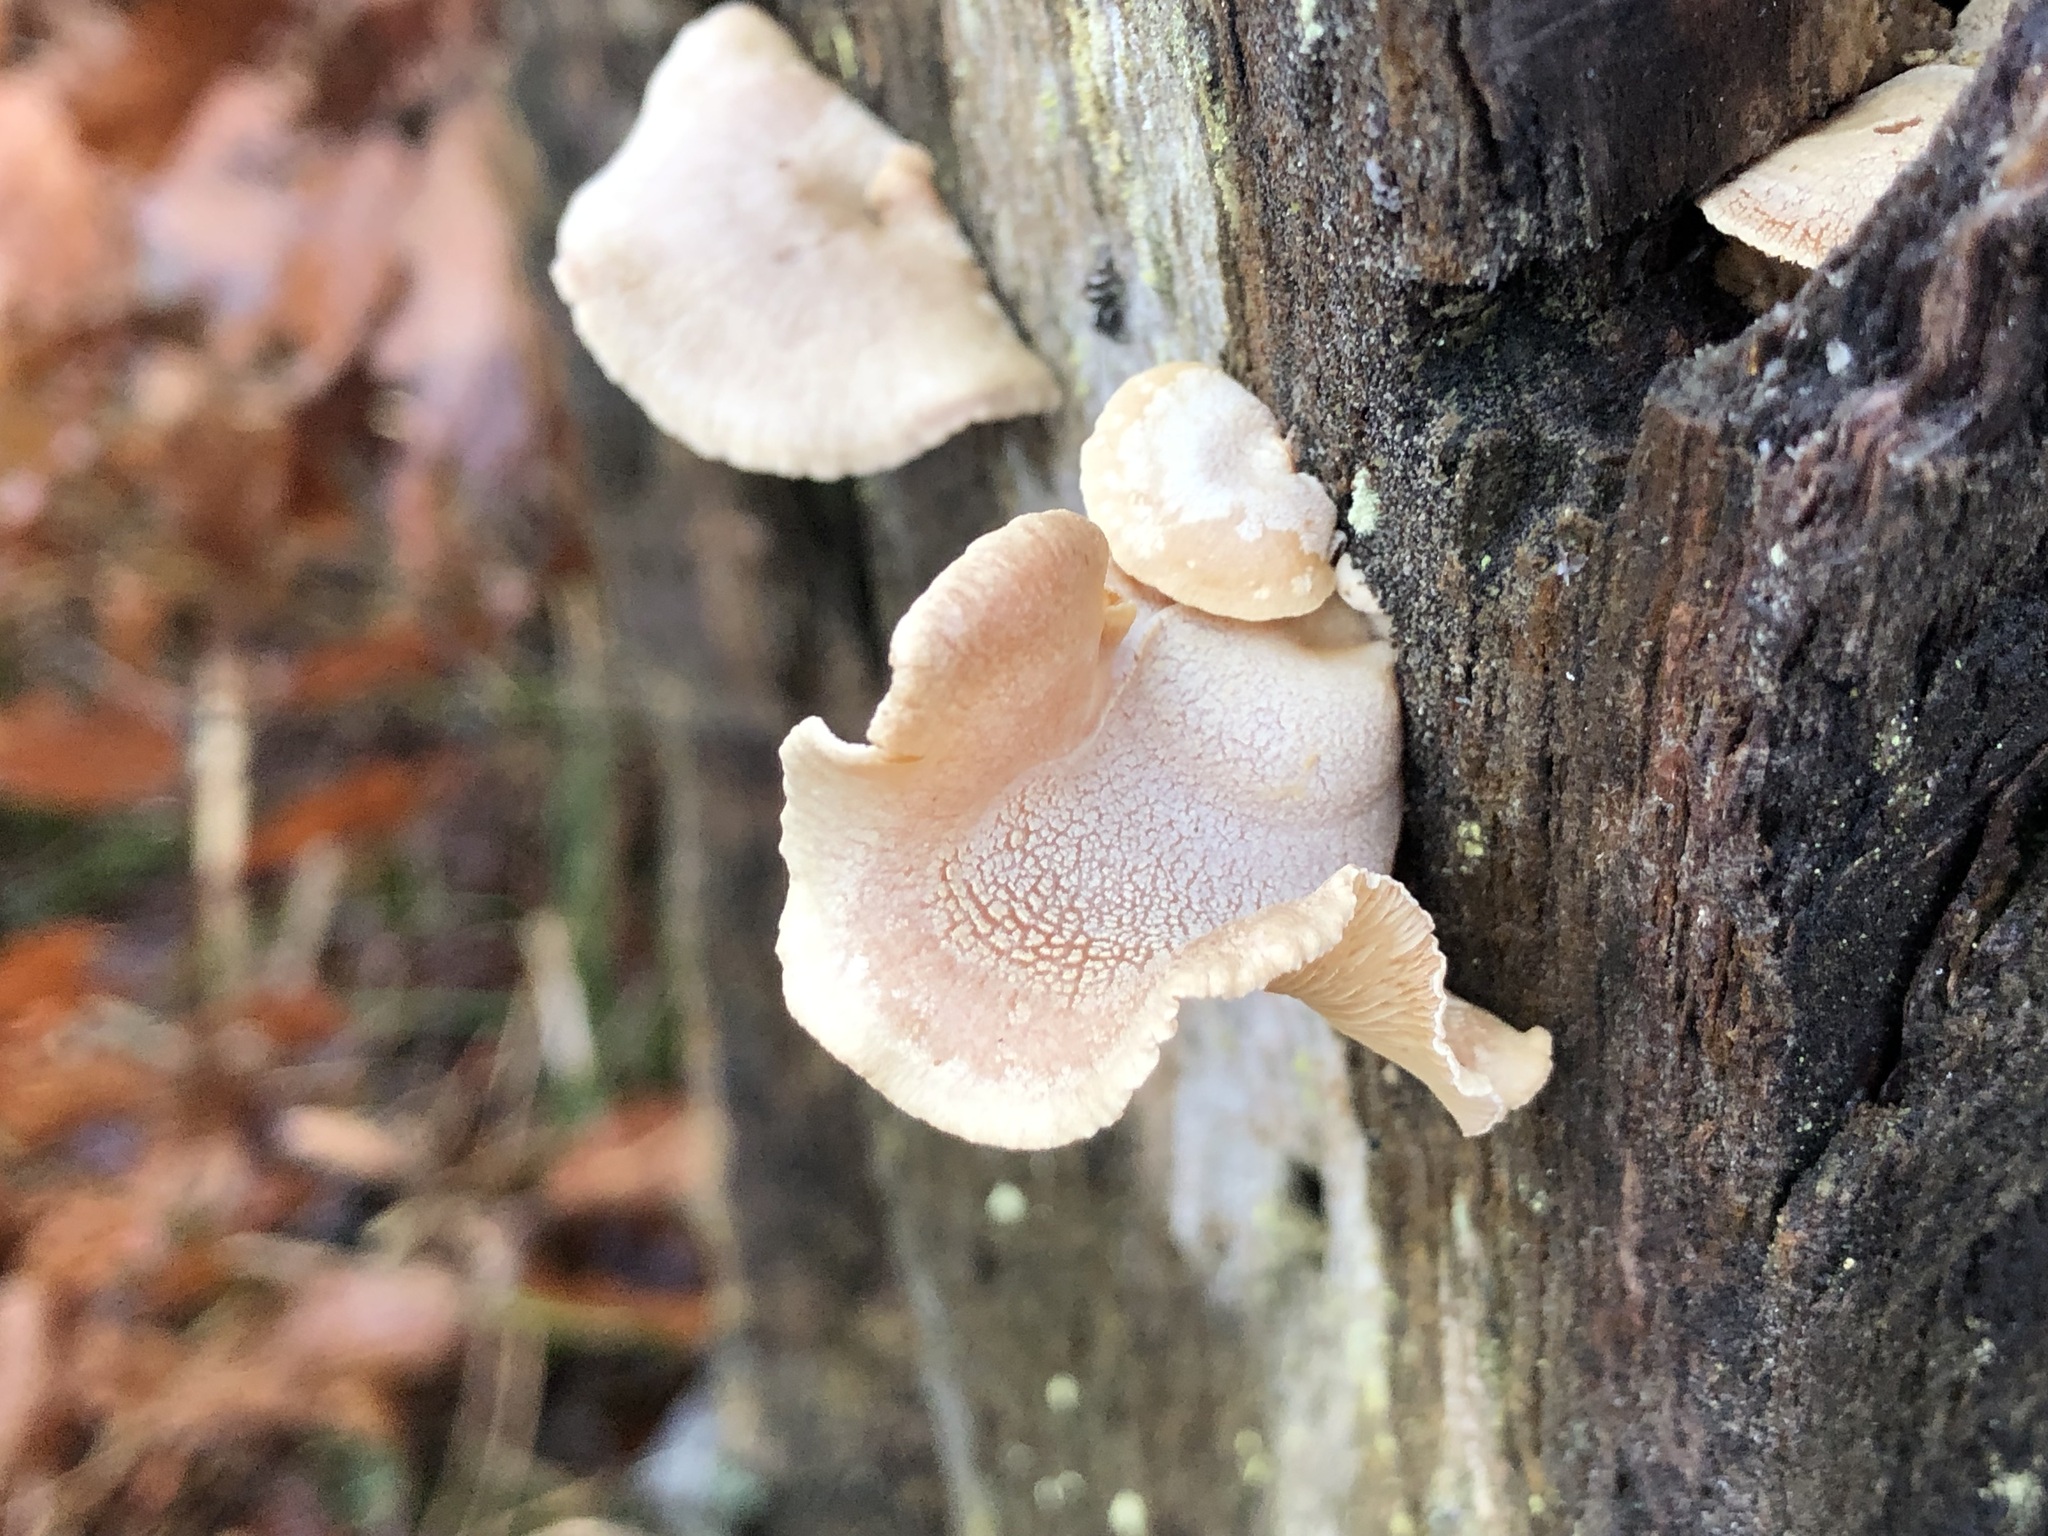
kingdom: Fungi
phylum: Basidiomycota
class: Agaricomycetes
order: Agaricales
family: Mycenaceae
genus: Panellus
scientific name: Panellus stipticus
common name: Bitter oysterling
